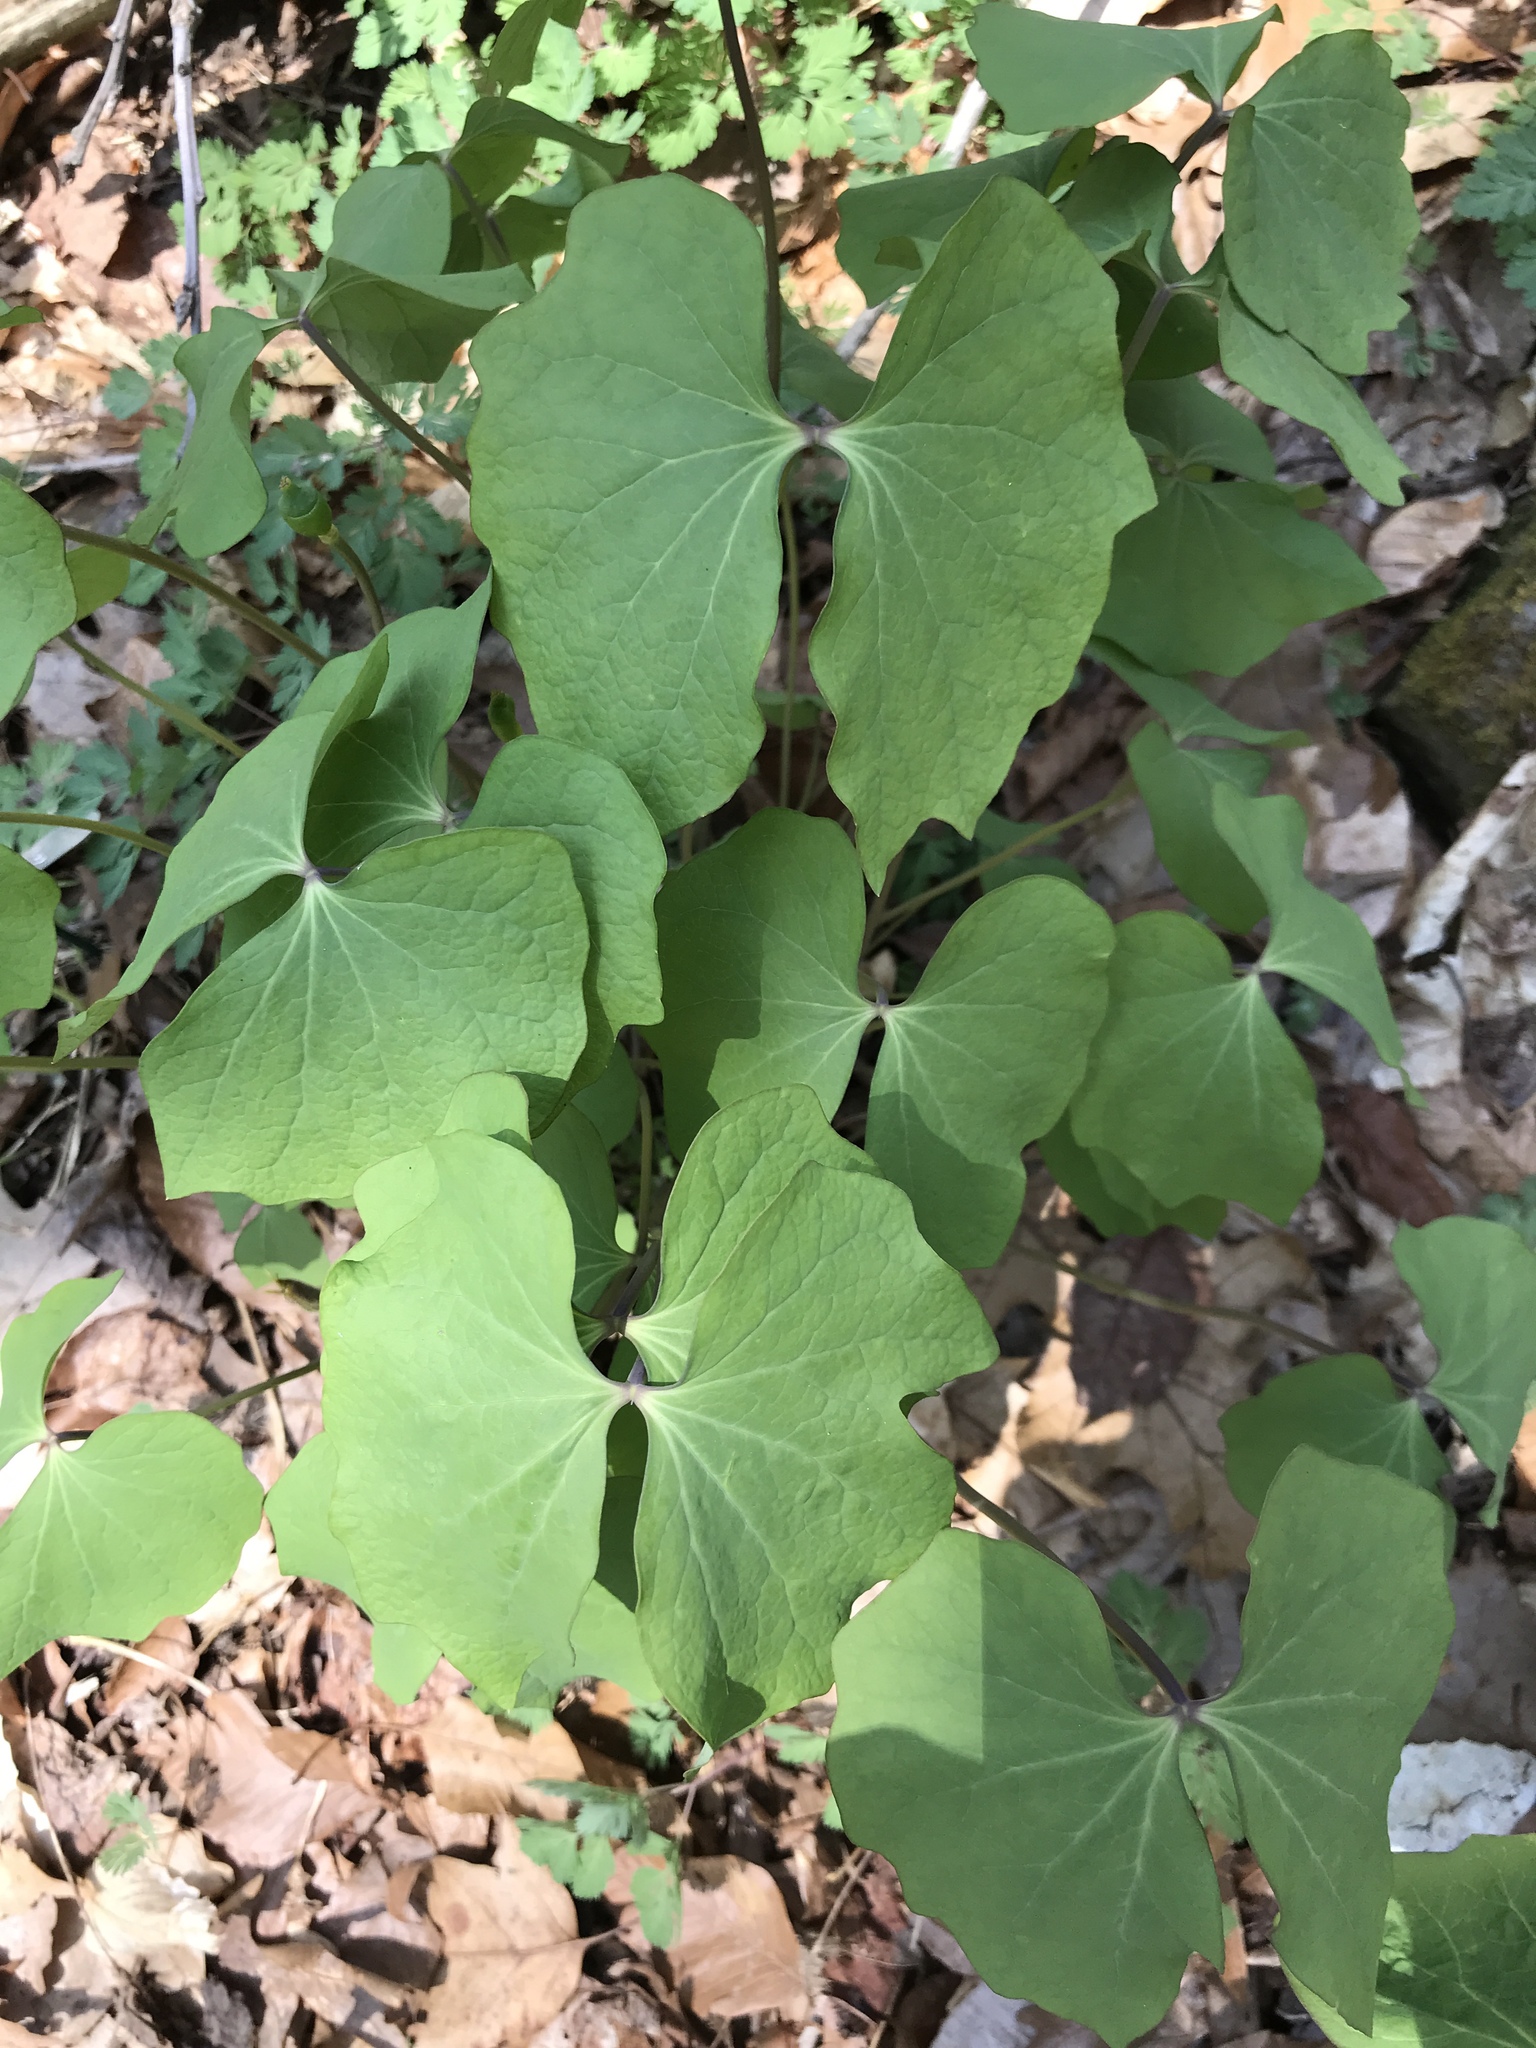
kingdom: Plantae
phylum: Tracheophyta
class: Magnoliopsida
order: Ranunculales
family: Berberidaceae
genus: Jeffersonia
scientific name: Jeffersonia diphylla
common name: Rheumatism-root
